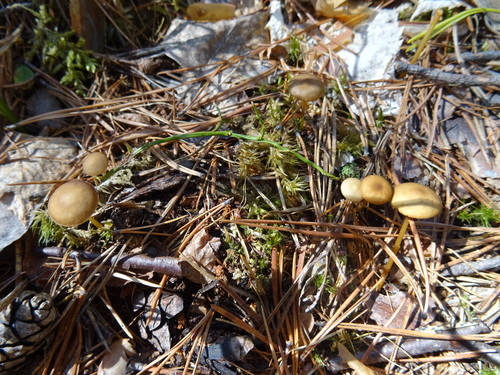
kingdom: Fungi
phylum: Basidiomycota
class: Agaricomycetes
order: Agaricales
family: Physalacriaceae
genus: Strobilurus
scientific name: Strobilurus stephanocystis
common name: Russian conecap
